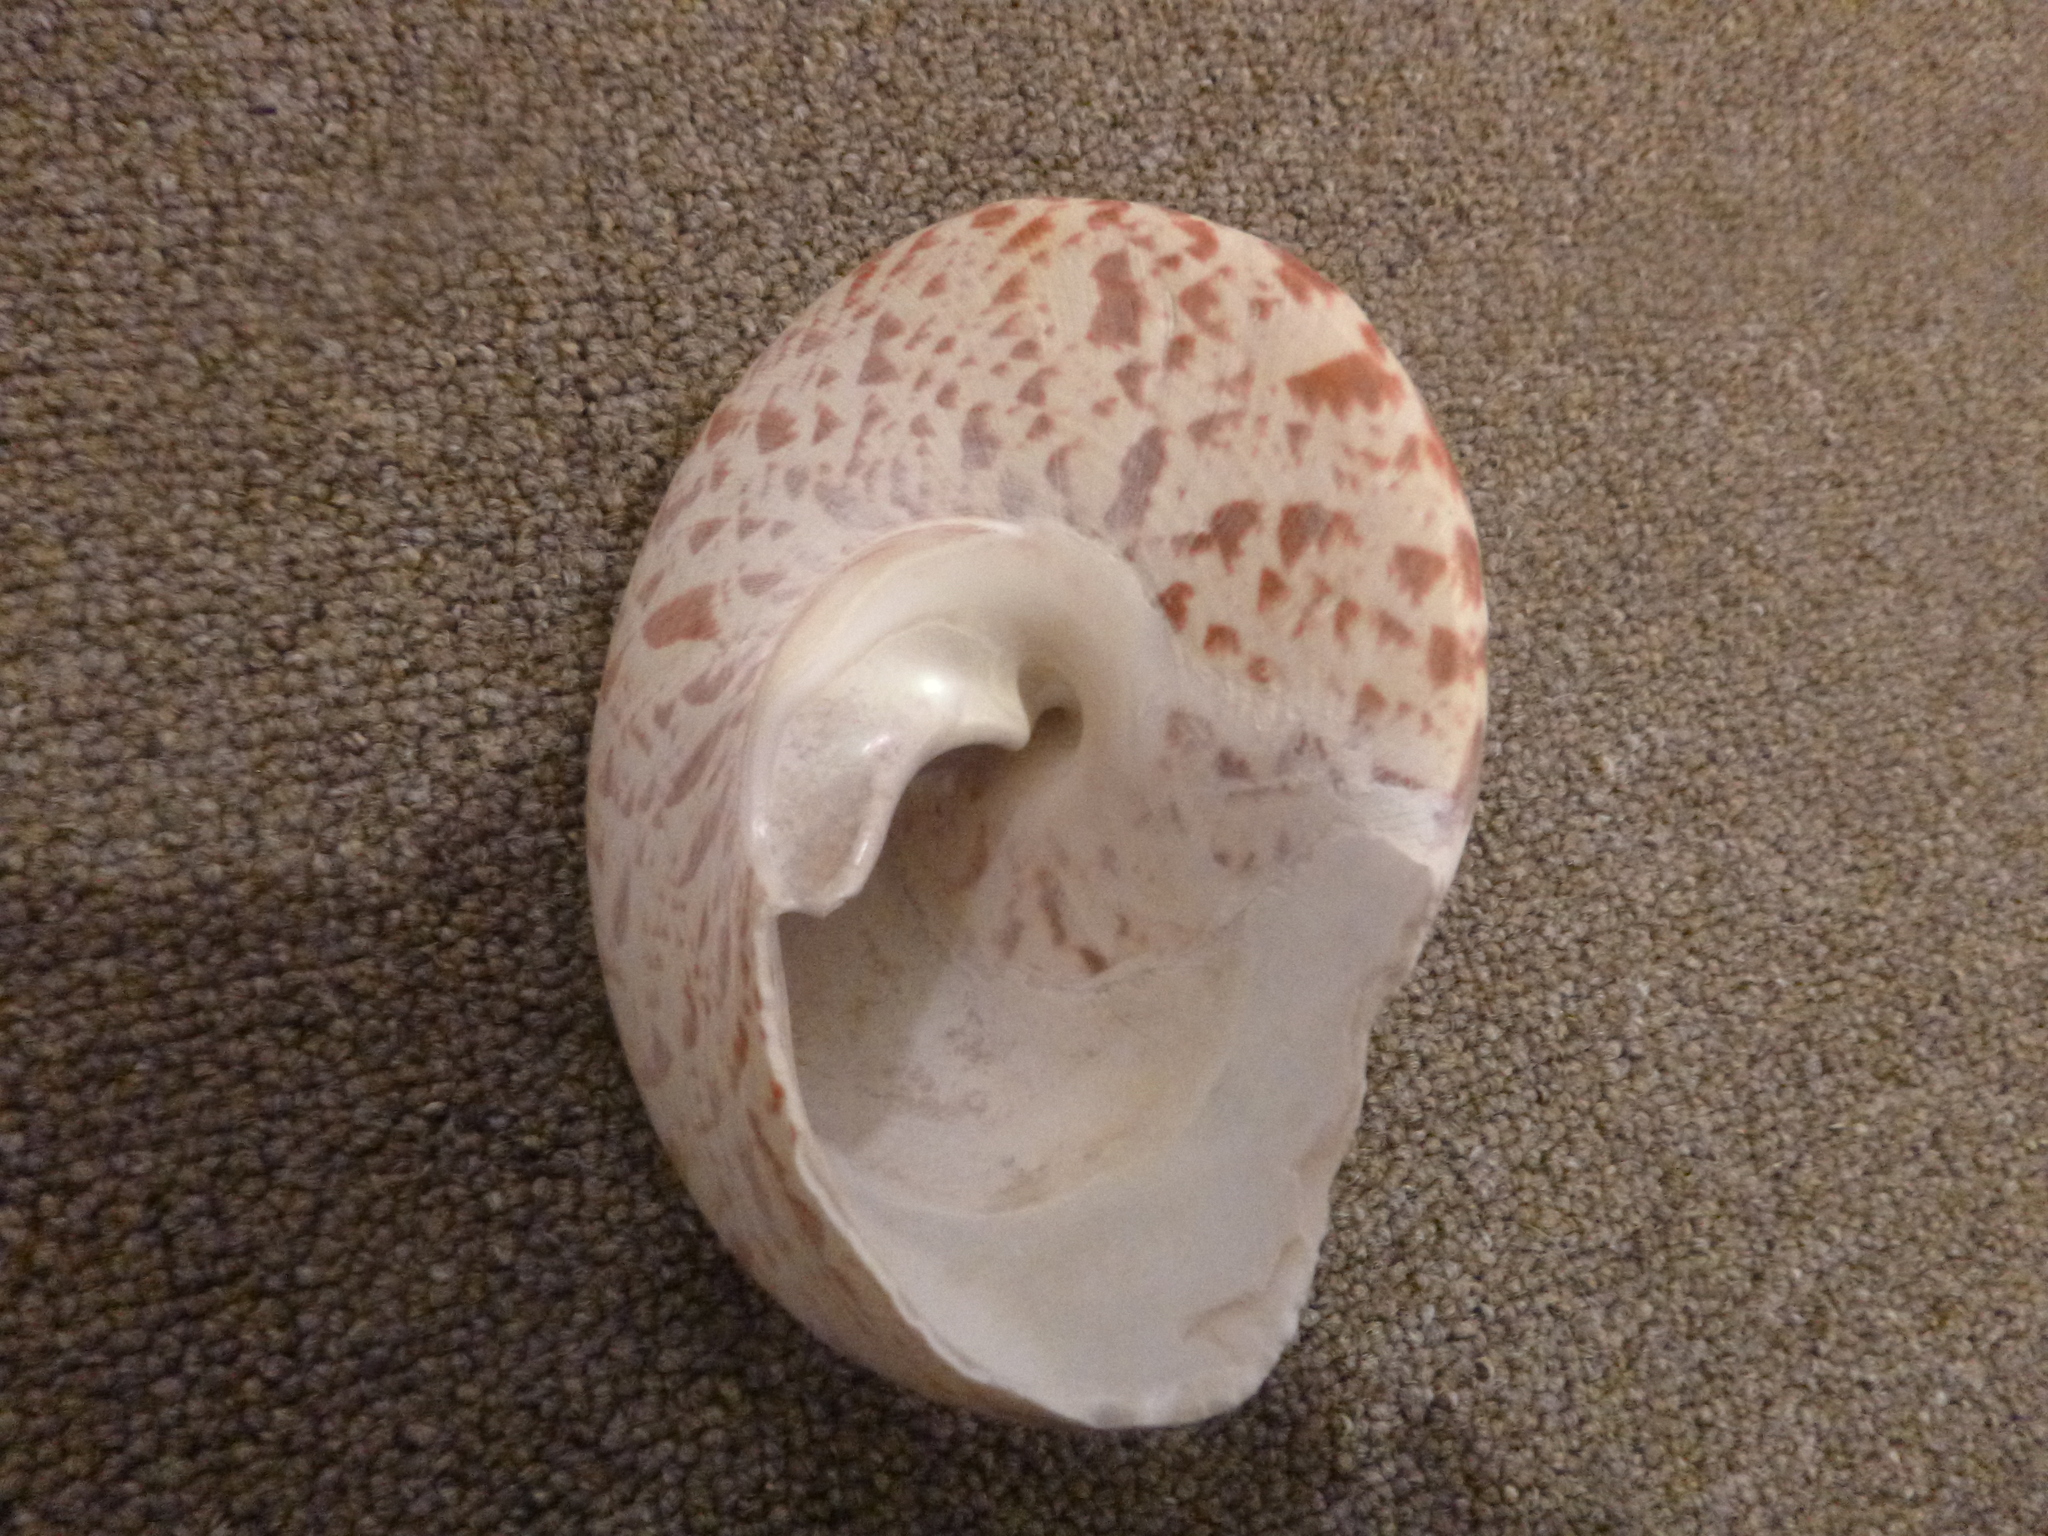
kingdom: Animalia
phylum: Mollusca
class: Gastropoda
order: Trochida
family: Tegulidae
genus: Rochia
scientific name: Rochia nilotica
